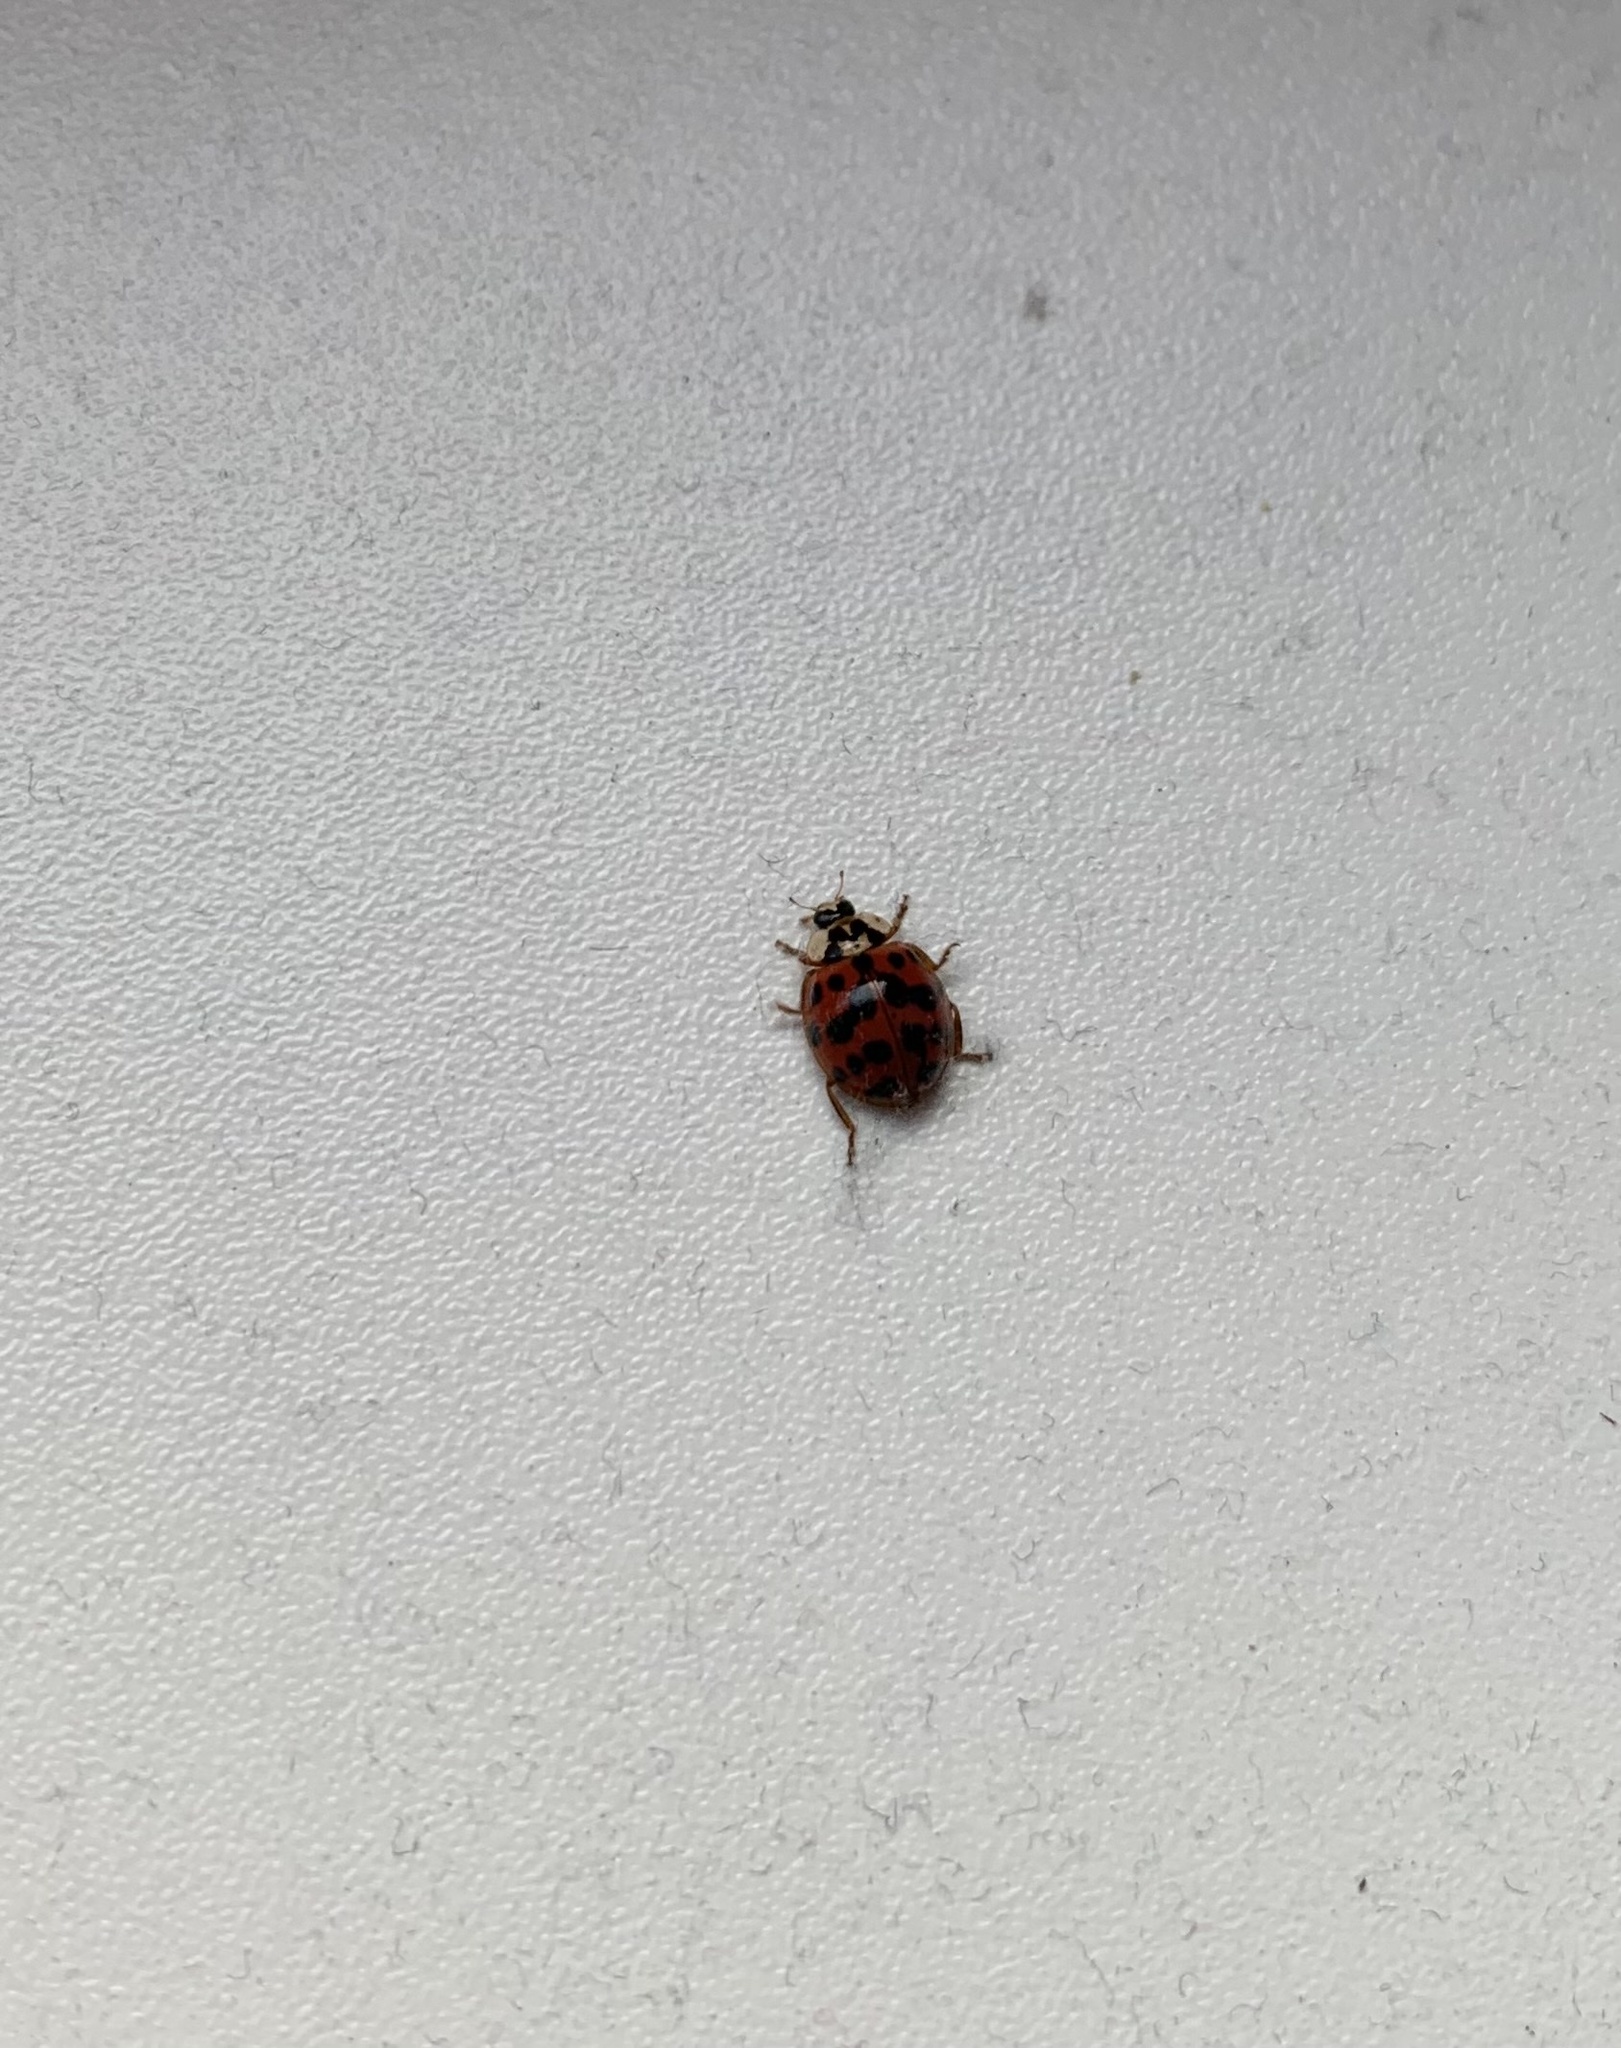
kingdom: Animalia
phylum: Arthropoda
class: Insecta
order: Coleoptera
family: Coccinellidae
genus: Harmonia
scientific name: Harmonia axyridis
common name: Harlequin ladybird
